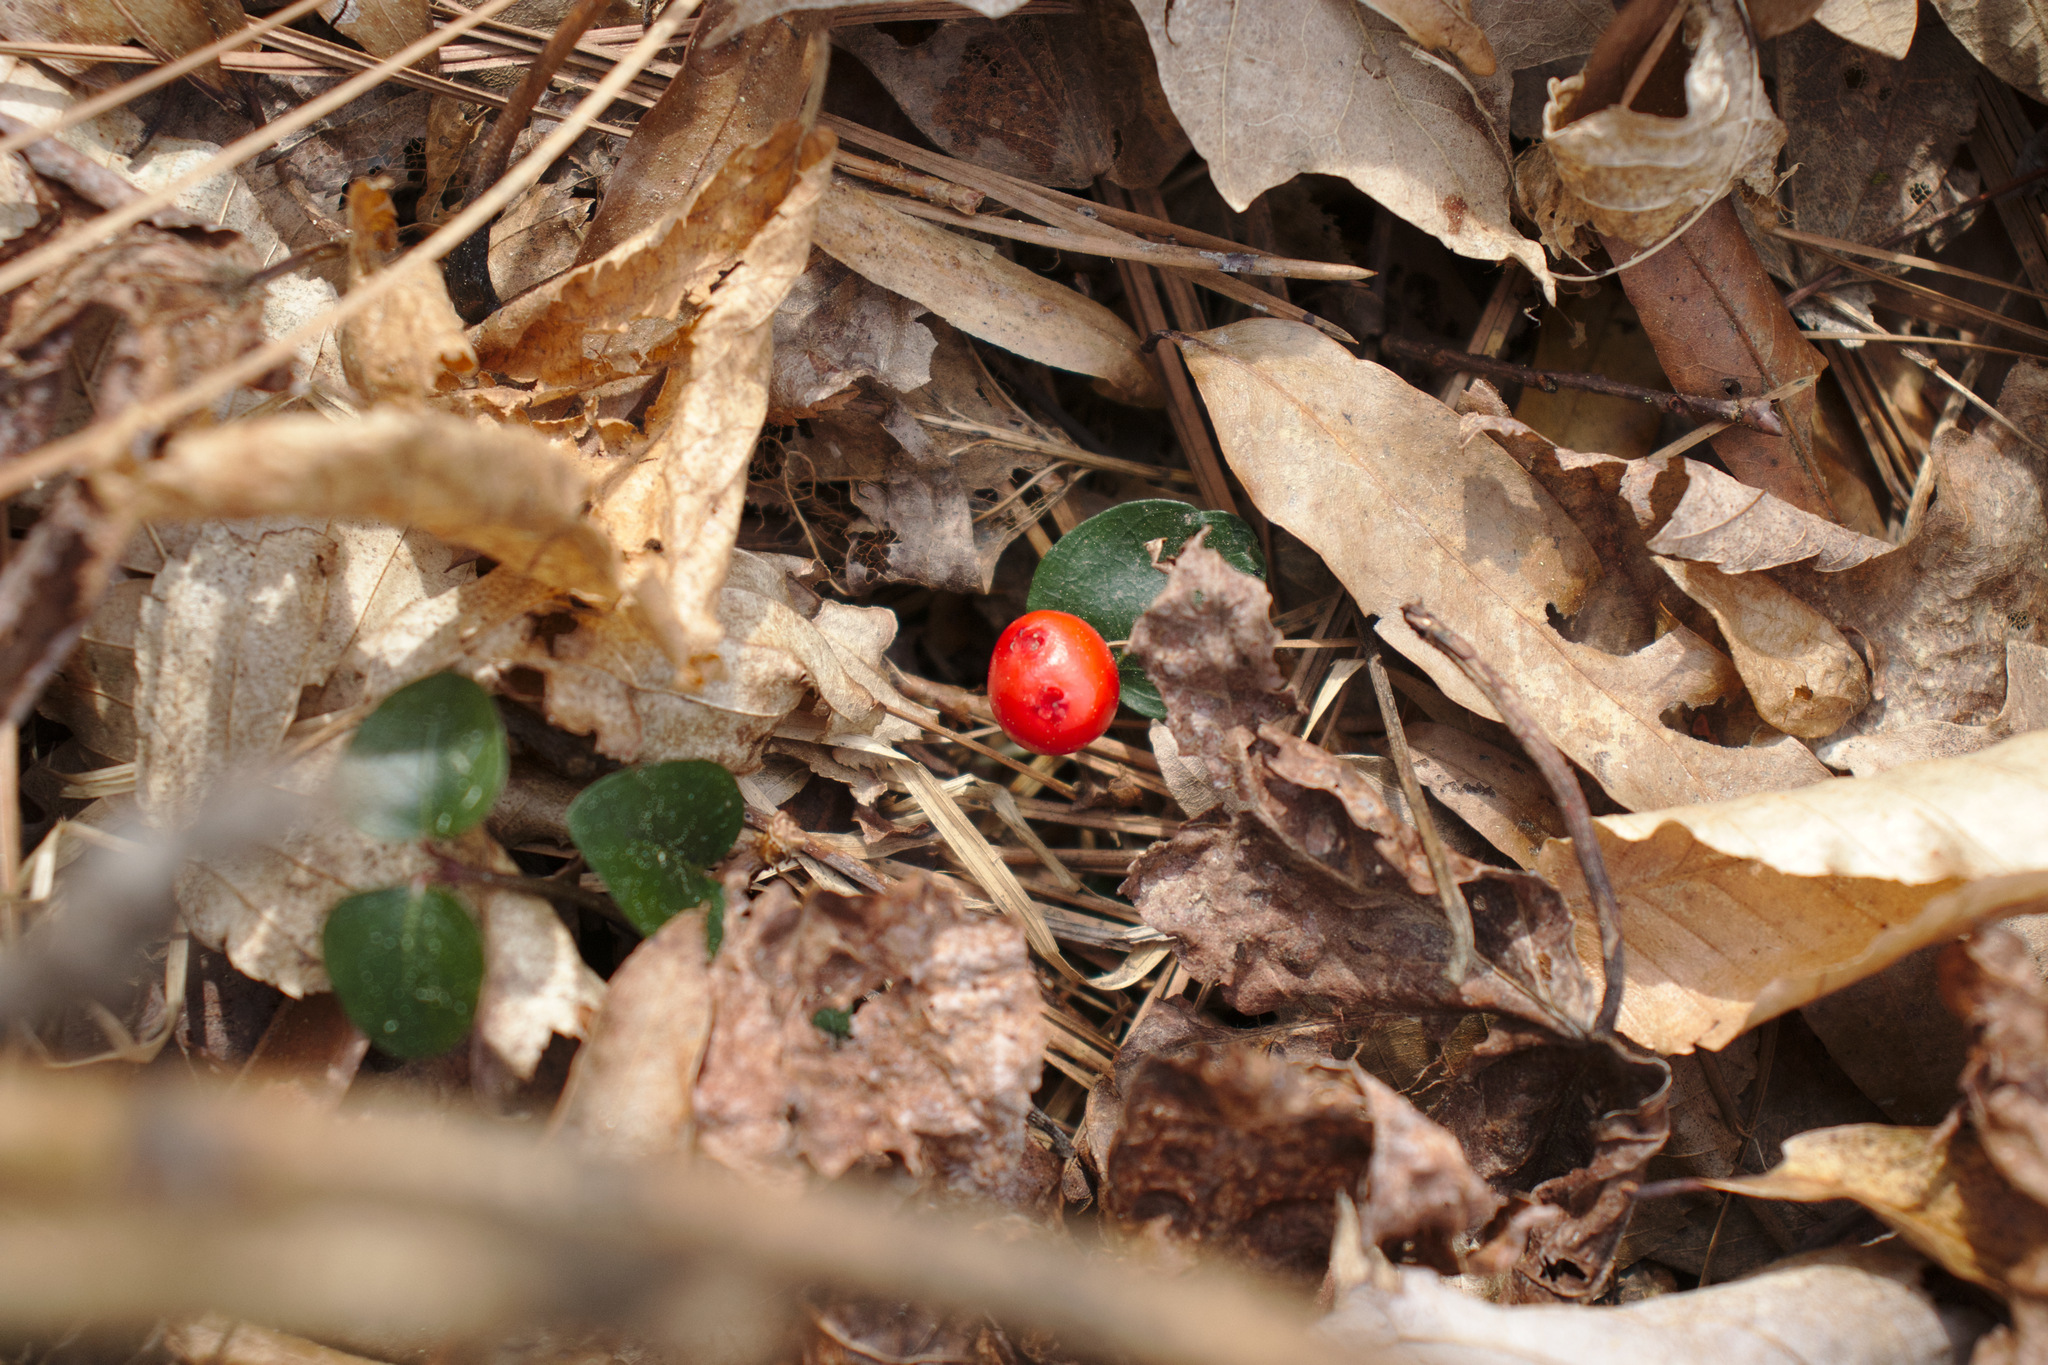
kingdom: Plantae
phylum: Tracheophyta
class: Magnoliopsida
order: Gentianales
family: Rubiaceae
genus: Mitchella
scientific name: Mitchella repens
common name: Partridge-berry
